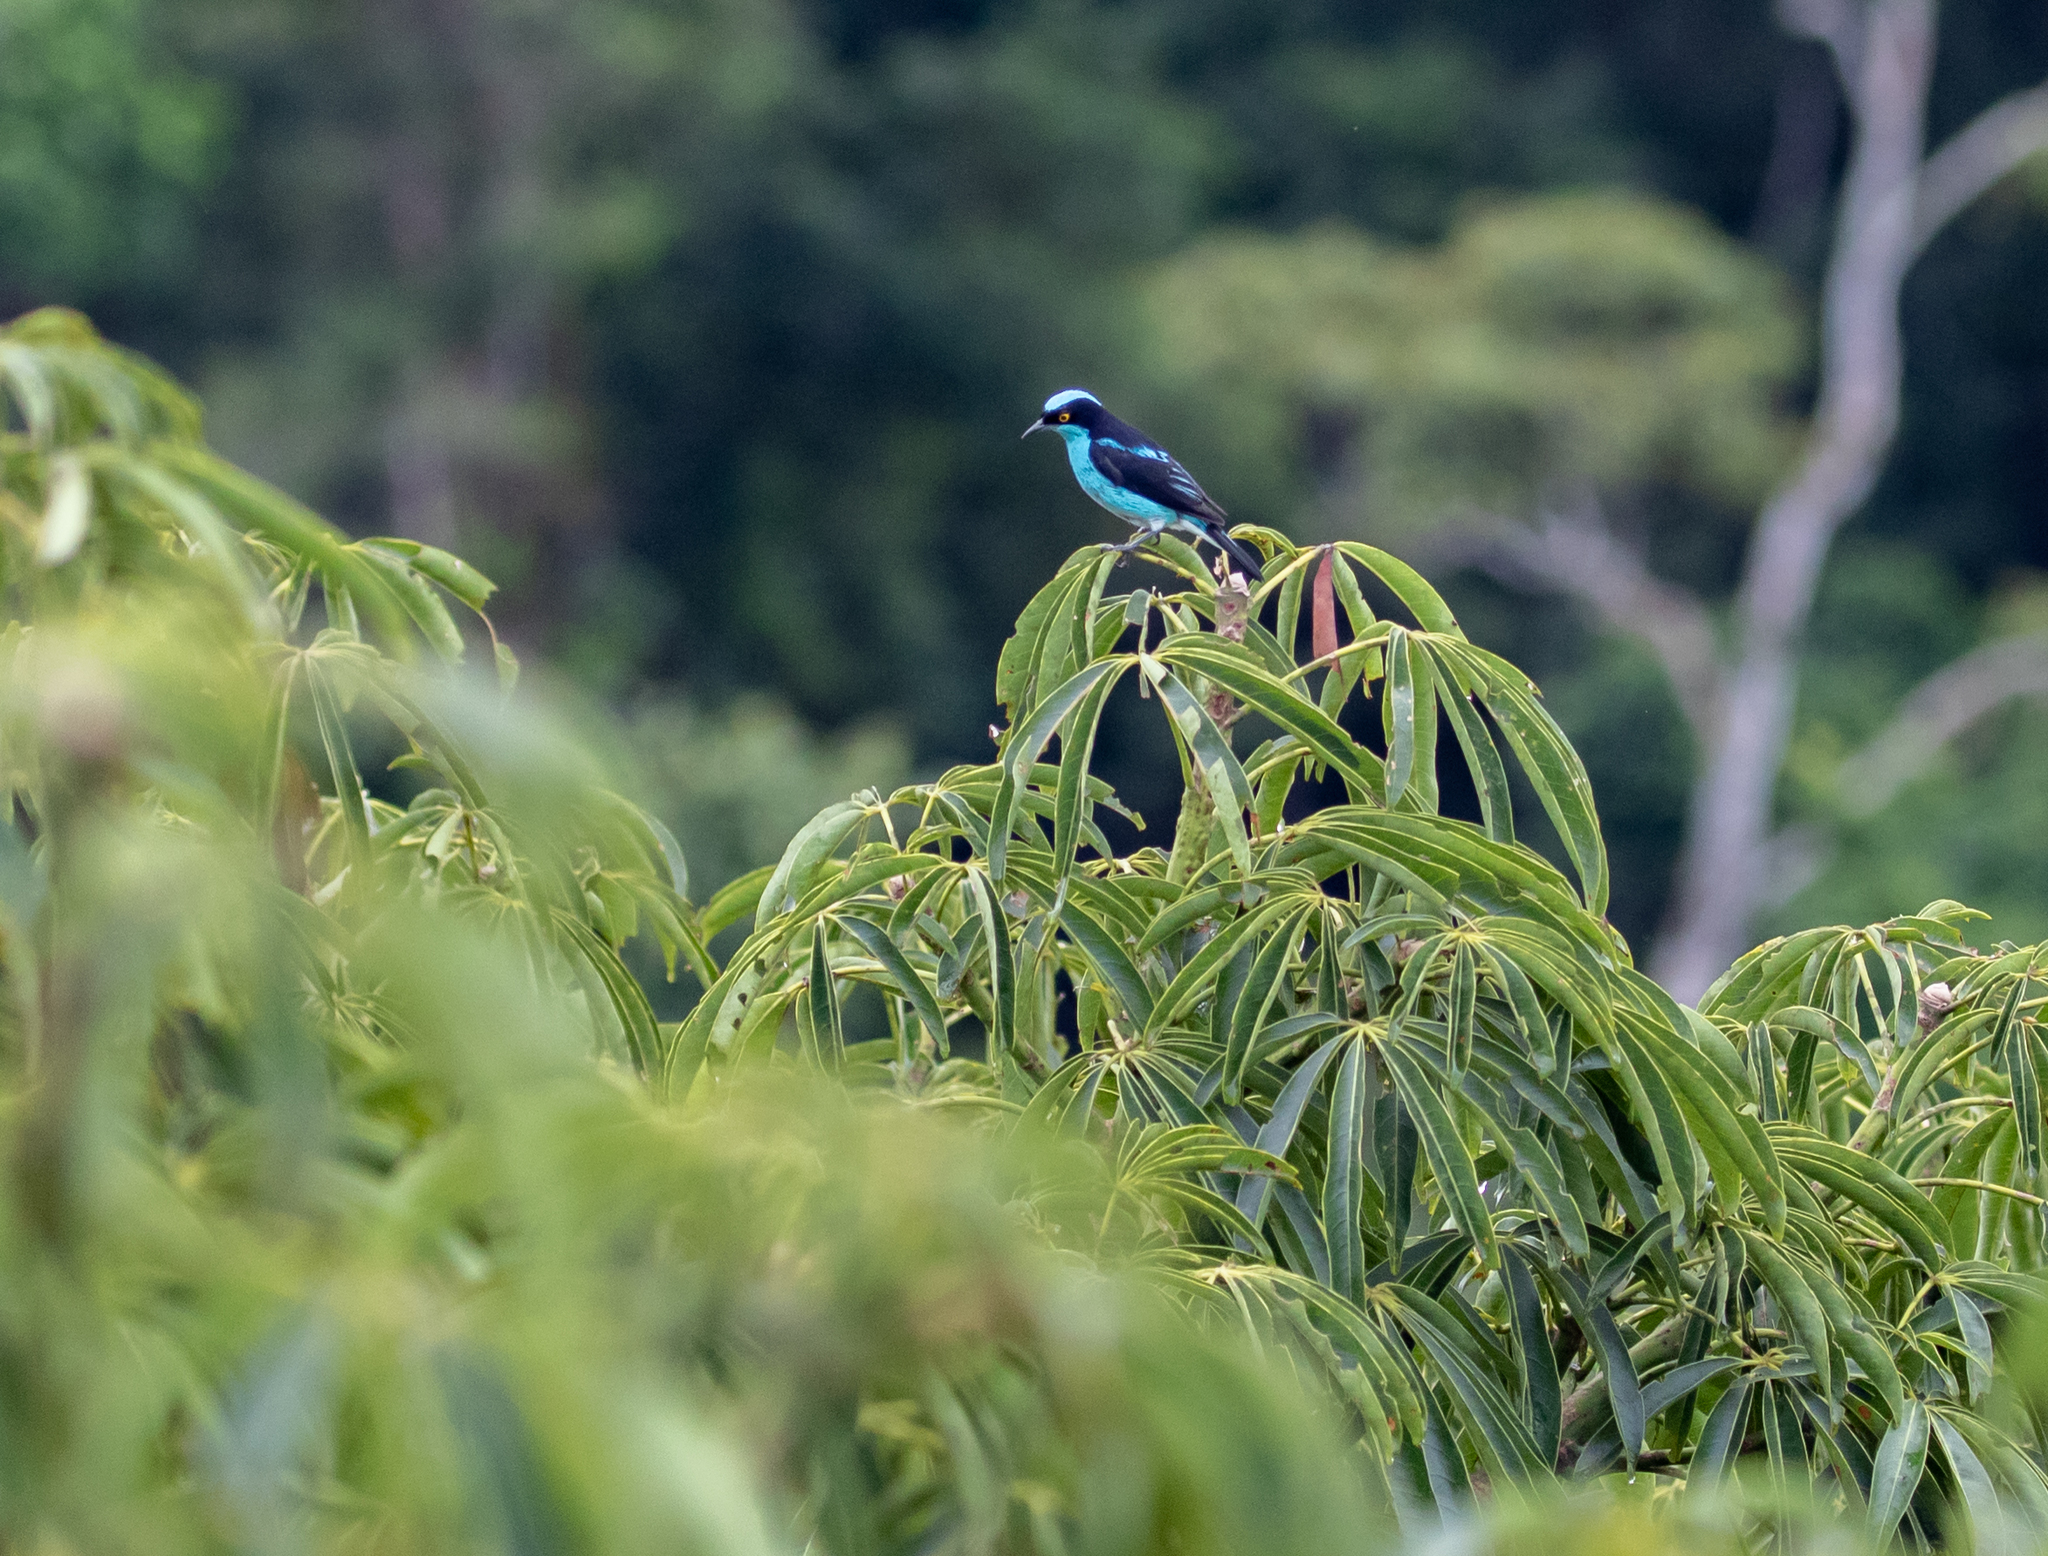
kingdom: Animalia
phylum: Chordata
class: Aves
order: Passeriformes
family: Thraupidae
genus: Dacnis
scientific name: Dacnis lineata
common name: Black-faced dacnis
